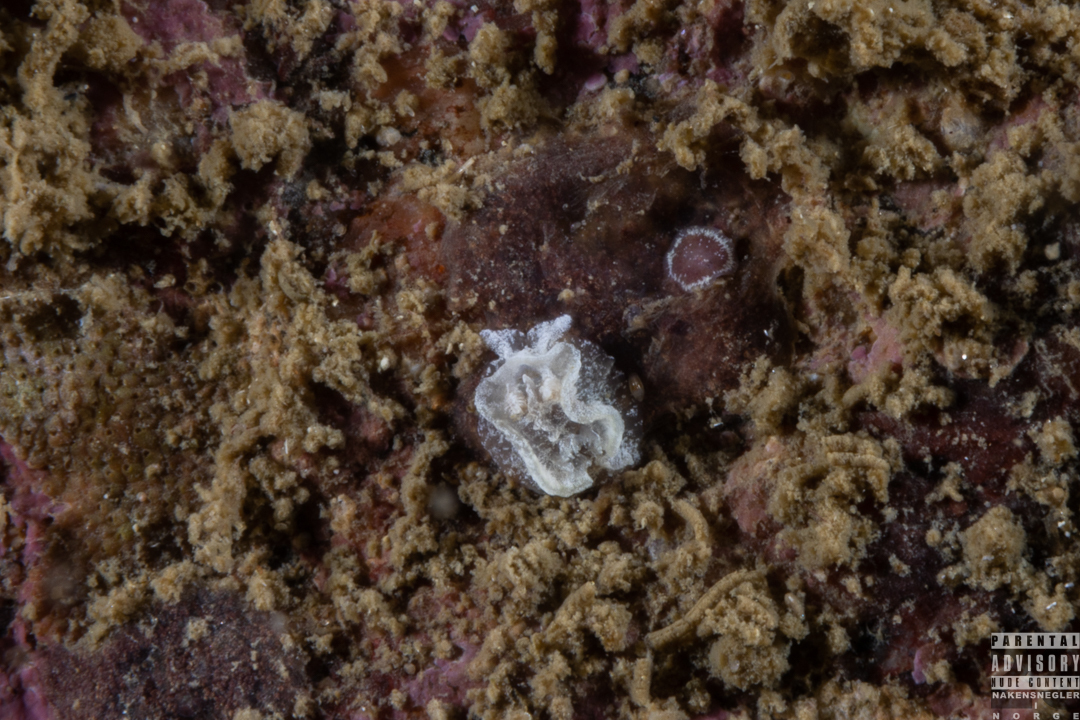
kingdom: Animalia
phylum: Mollusca
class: Gastropoda
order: Nudibranchia
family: Goniodorididae
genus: Pelagella
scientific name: Pelagella castanea
